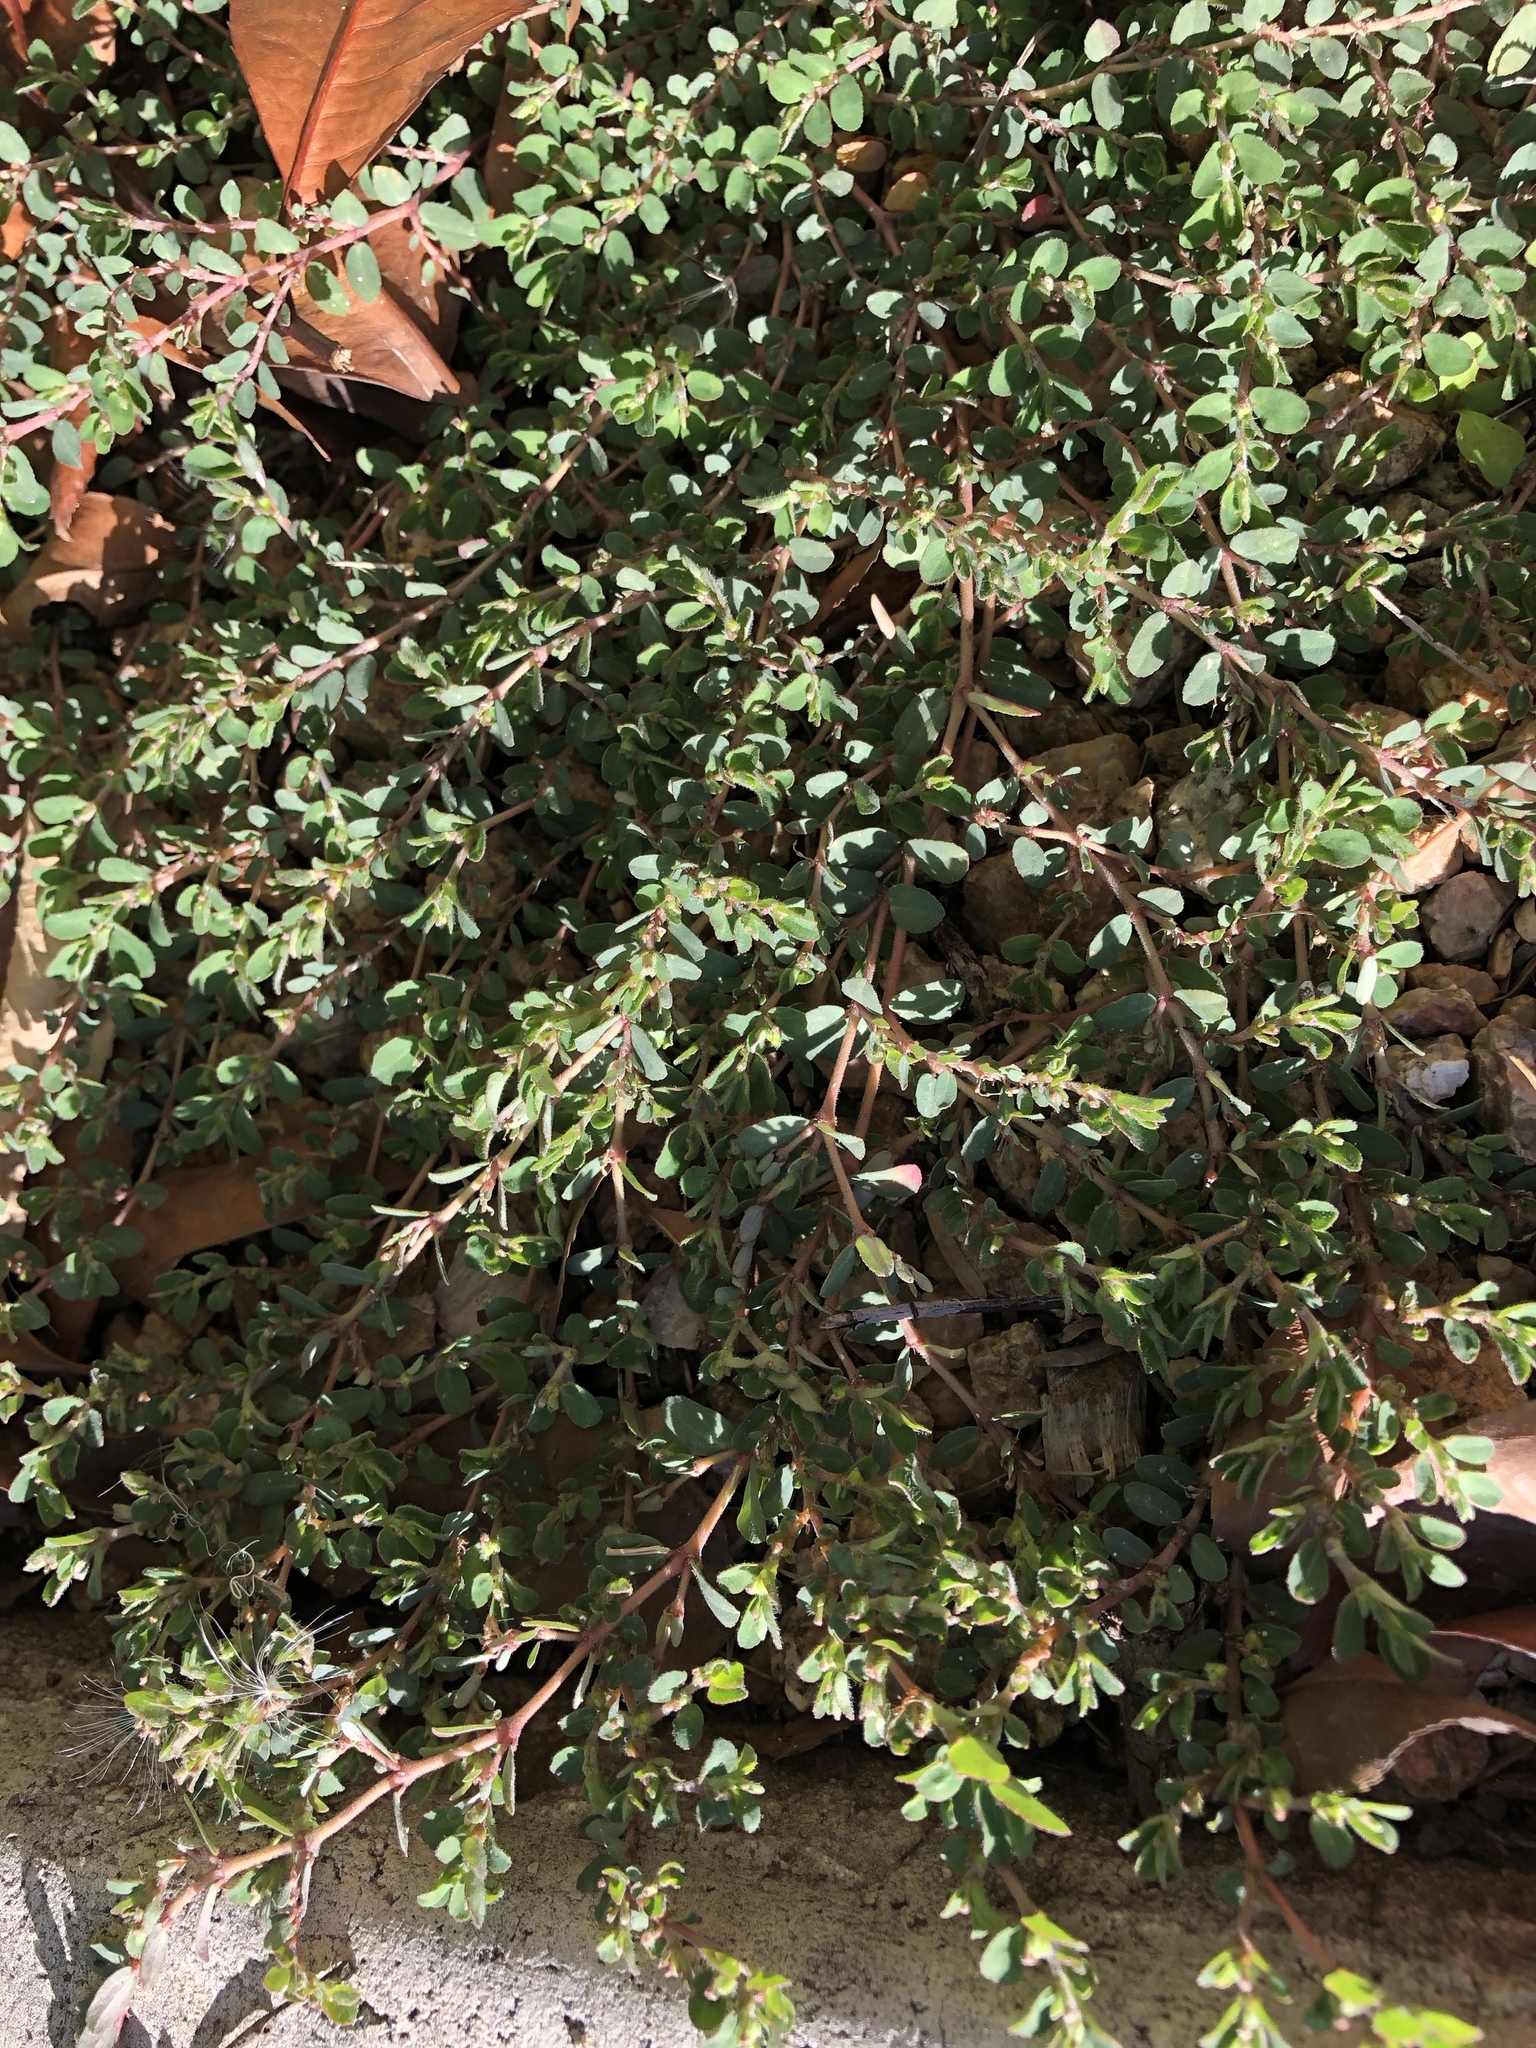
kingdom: Plantae
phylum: Tracheophyta
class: Magnoliopsida
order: Malpighiales
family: Euphorbiaceae
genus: Euphorbia
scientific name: Euphorbia prostrata
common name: Prostrate sandmat
